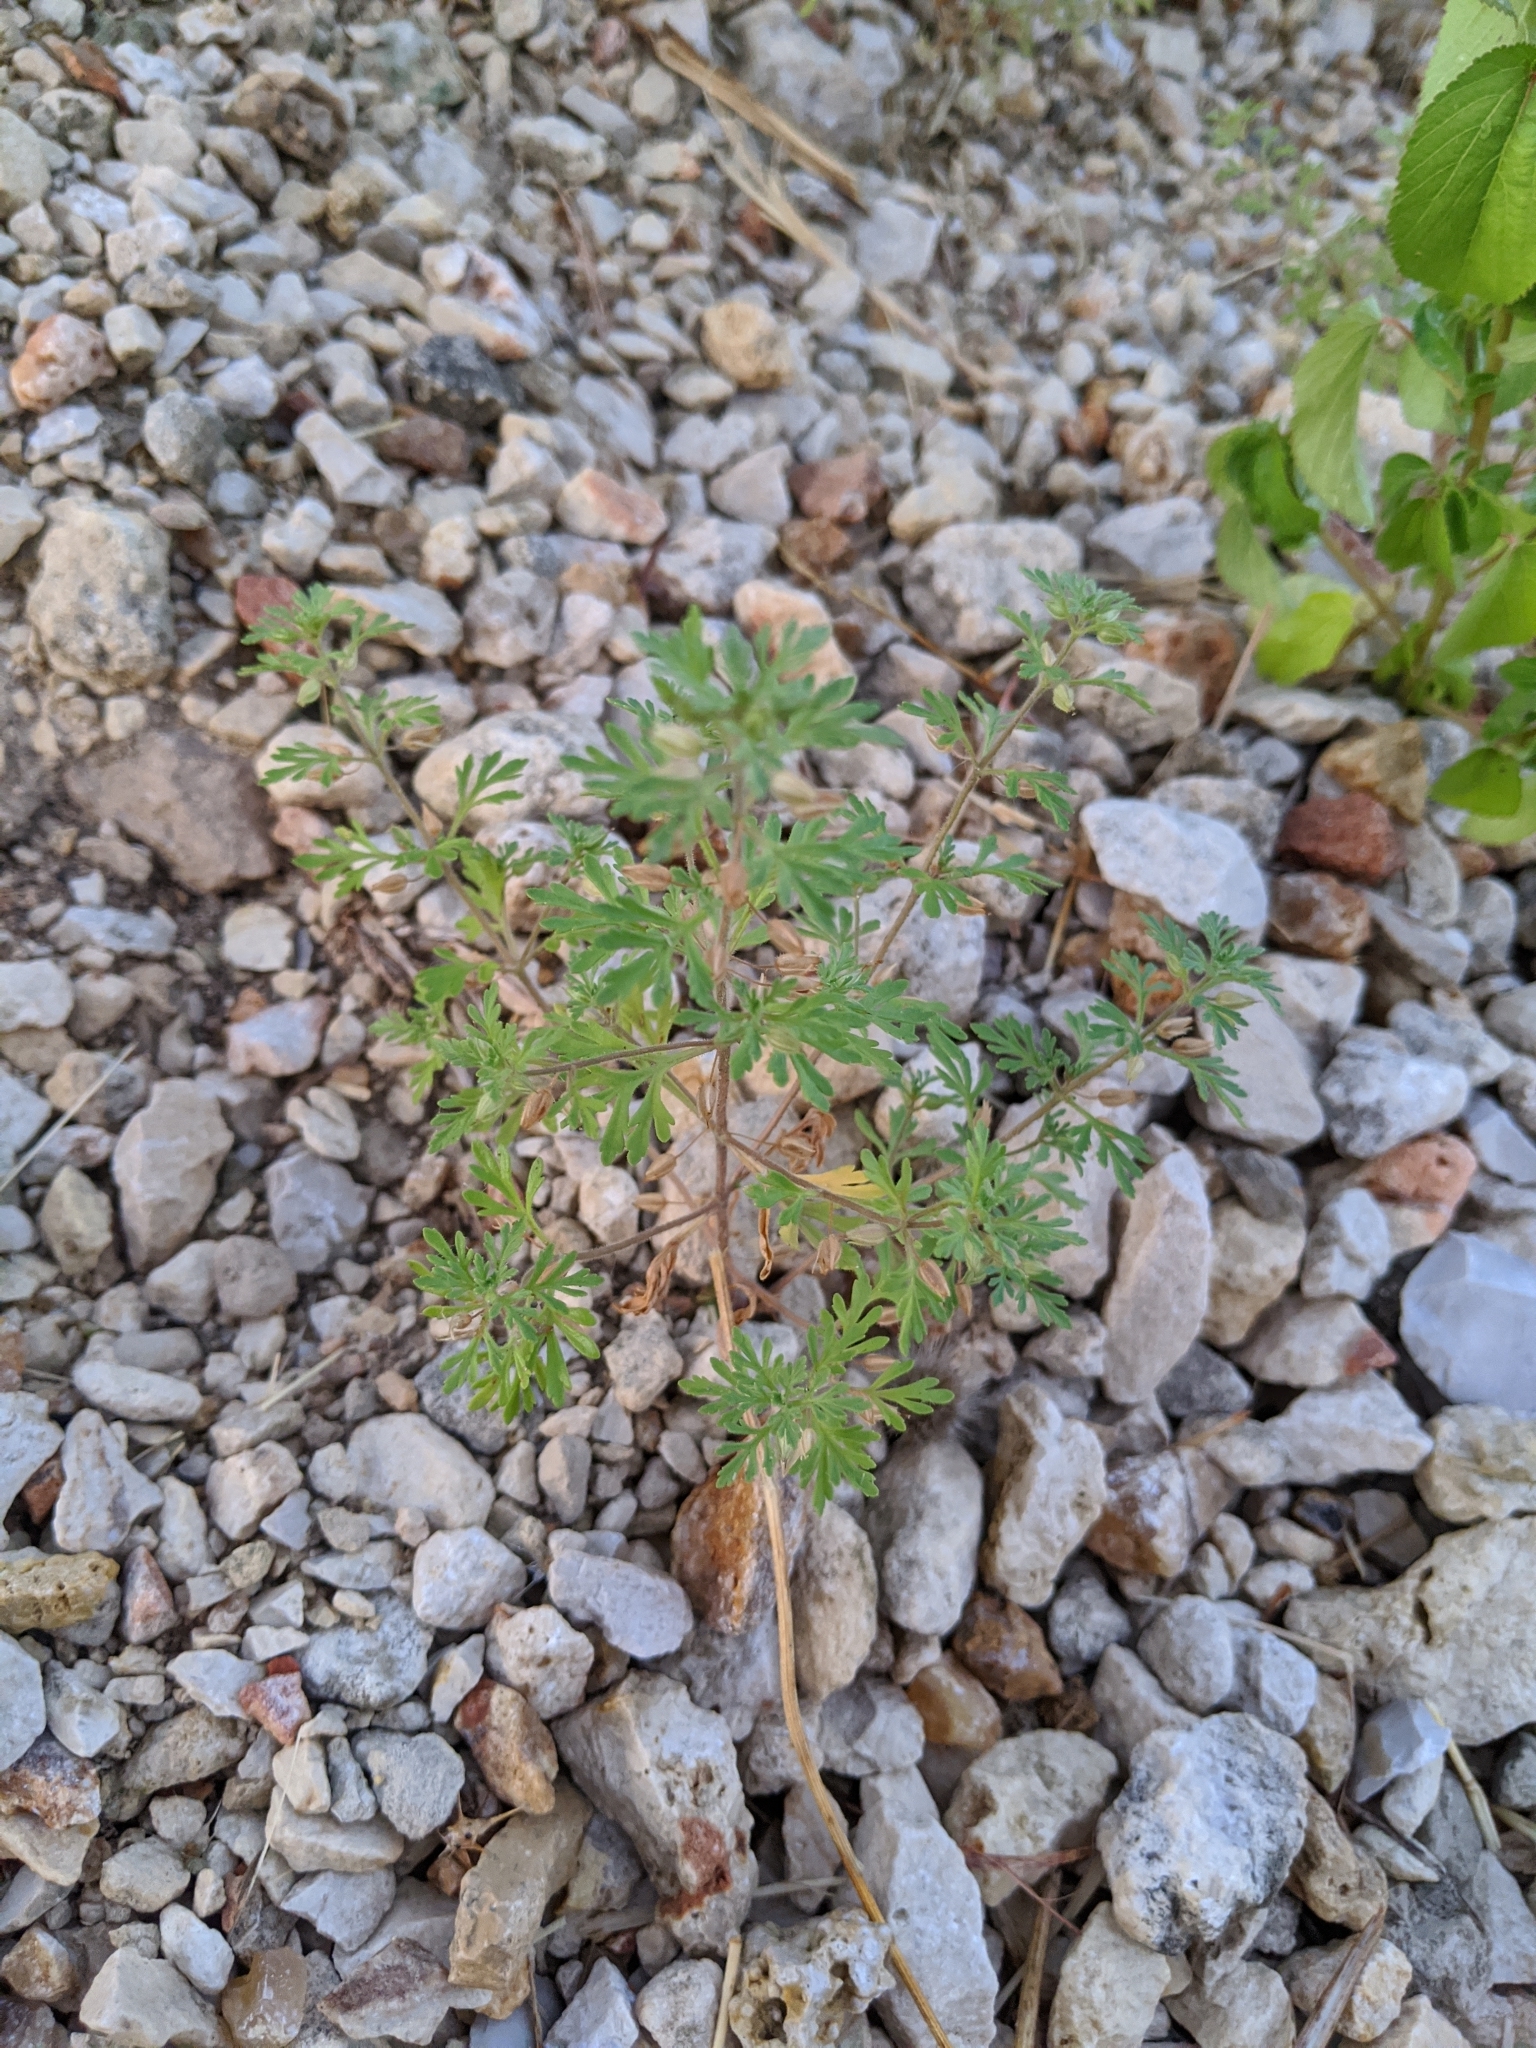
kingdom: Plantae
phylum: Tracheophyta
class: Magnoliopsida
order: Lamiales
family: Plantaginaceae
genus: Leucospora
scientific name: Leucospora multifida
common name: Narrow-leaf paleseed
